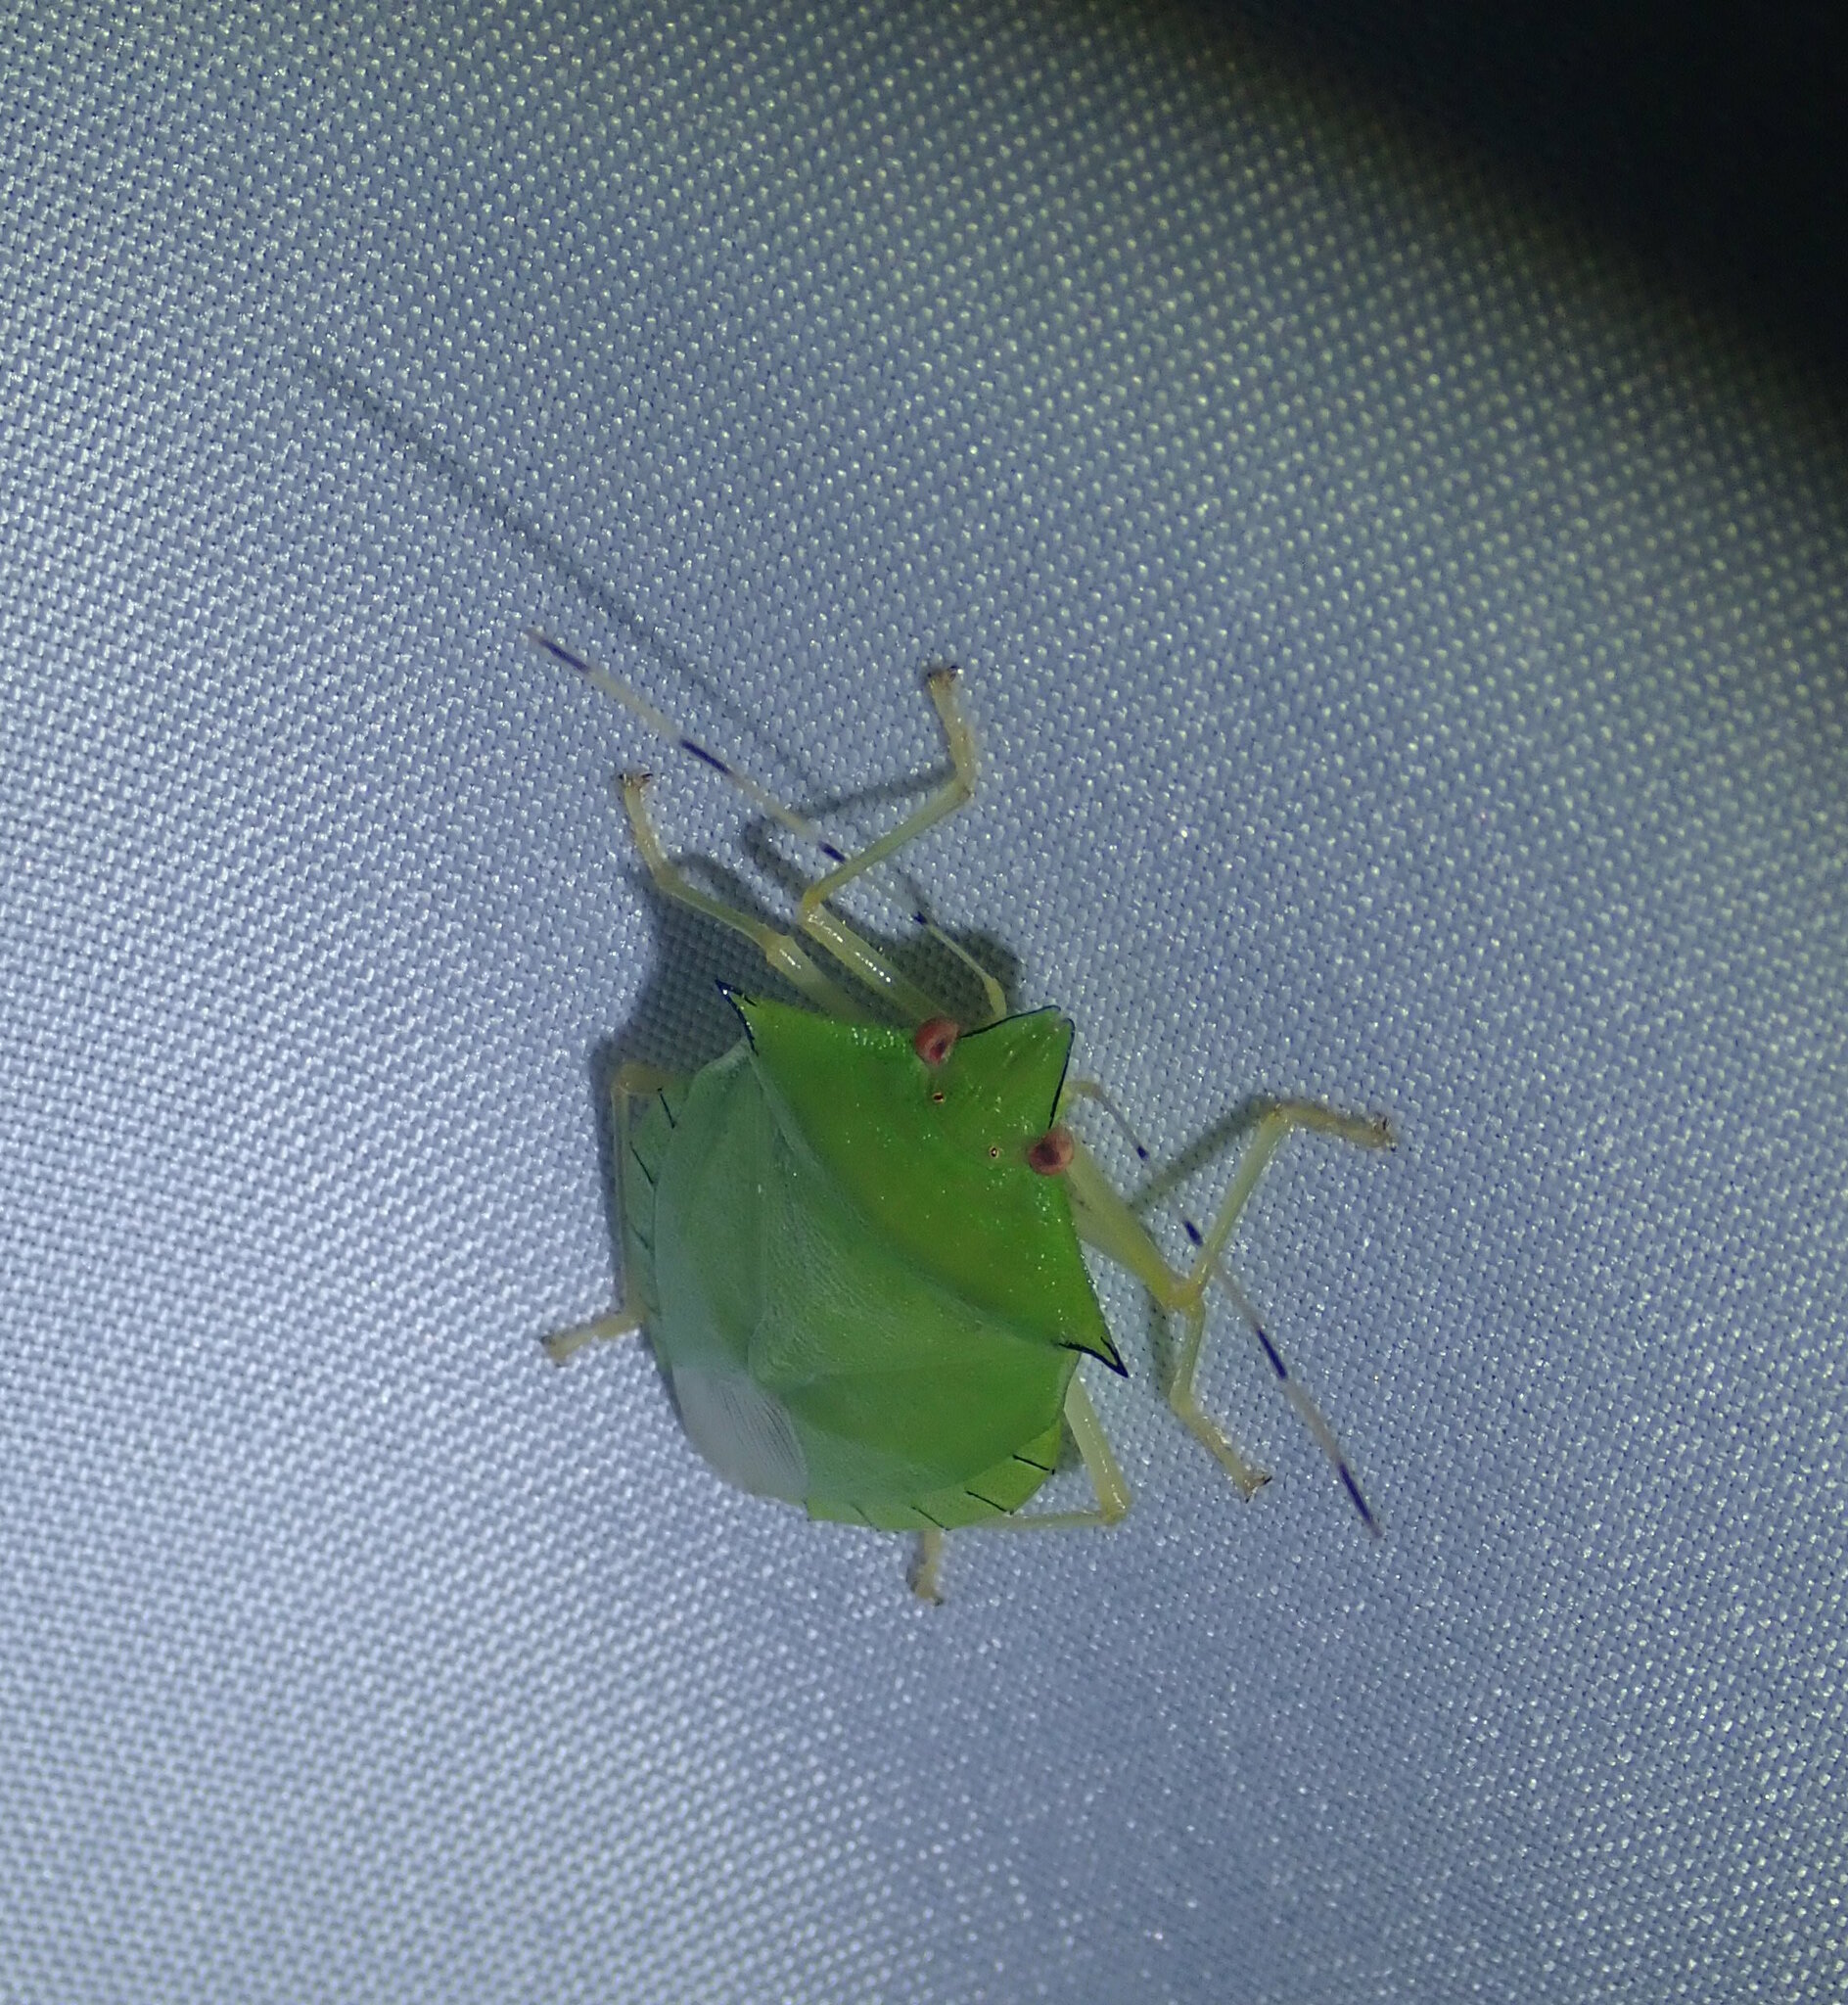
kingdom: Animalia
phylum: Arthropoda
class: Insecta
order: Hemiptera
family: Pentatomidae
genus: Chlorocoris
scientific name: Chlorocoris
